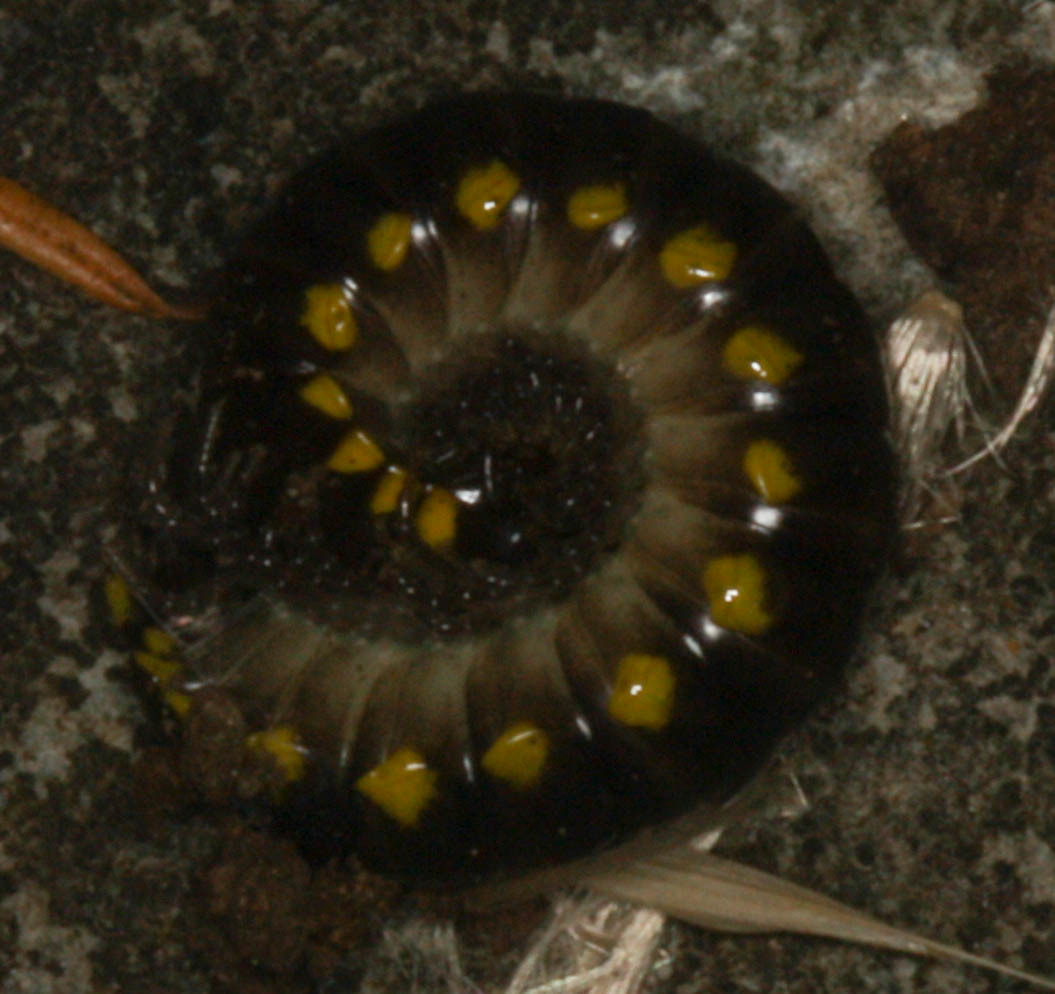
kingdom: Animalia
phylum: Arthropoda
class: Diplopoda
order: Polydesmida
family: Xystodesmidae
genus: Harpaphe
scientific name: Harpaphe haydeniana
